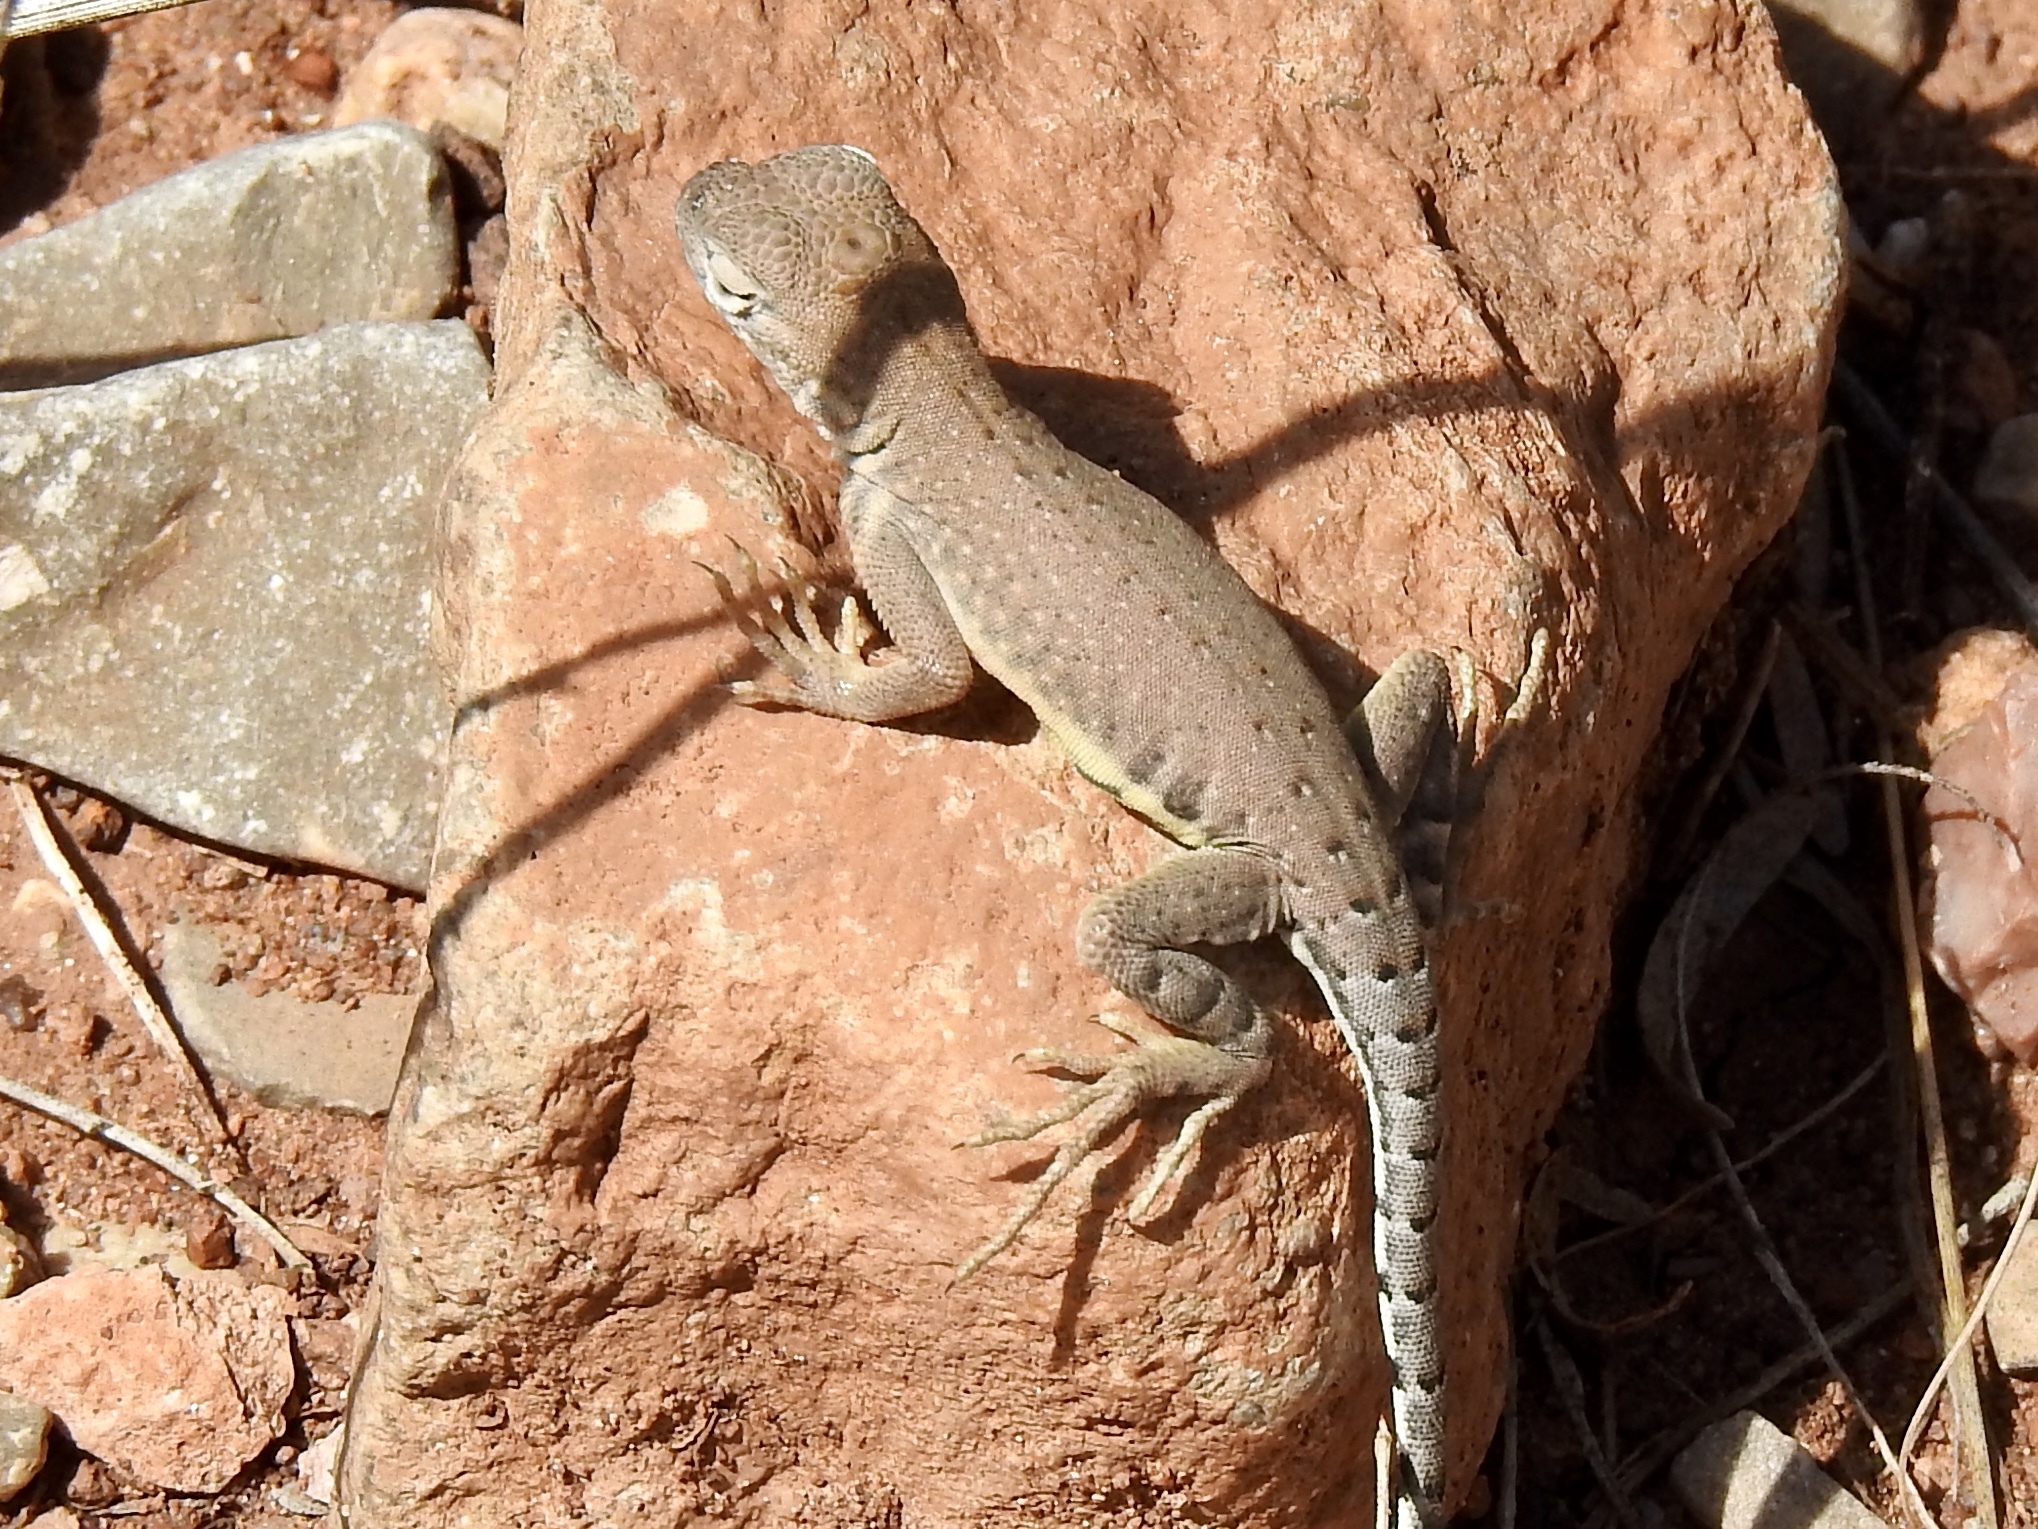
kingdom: Animalia
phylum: Chordata
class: Squamata
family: Phrynosomatidae
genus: Cophosaurus
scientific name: Cophosaurus texanus
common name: Greater earless lizard
